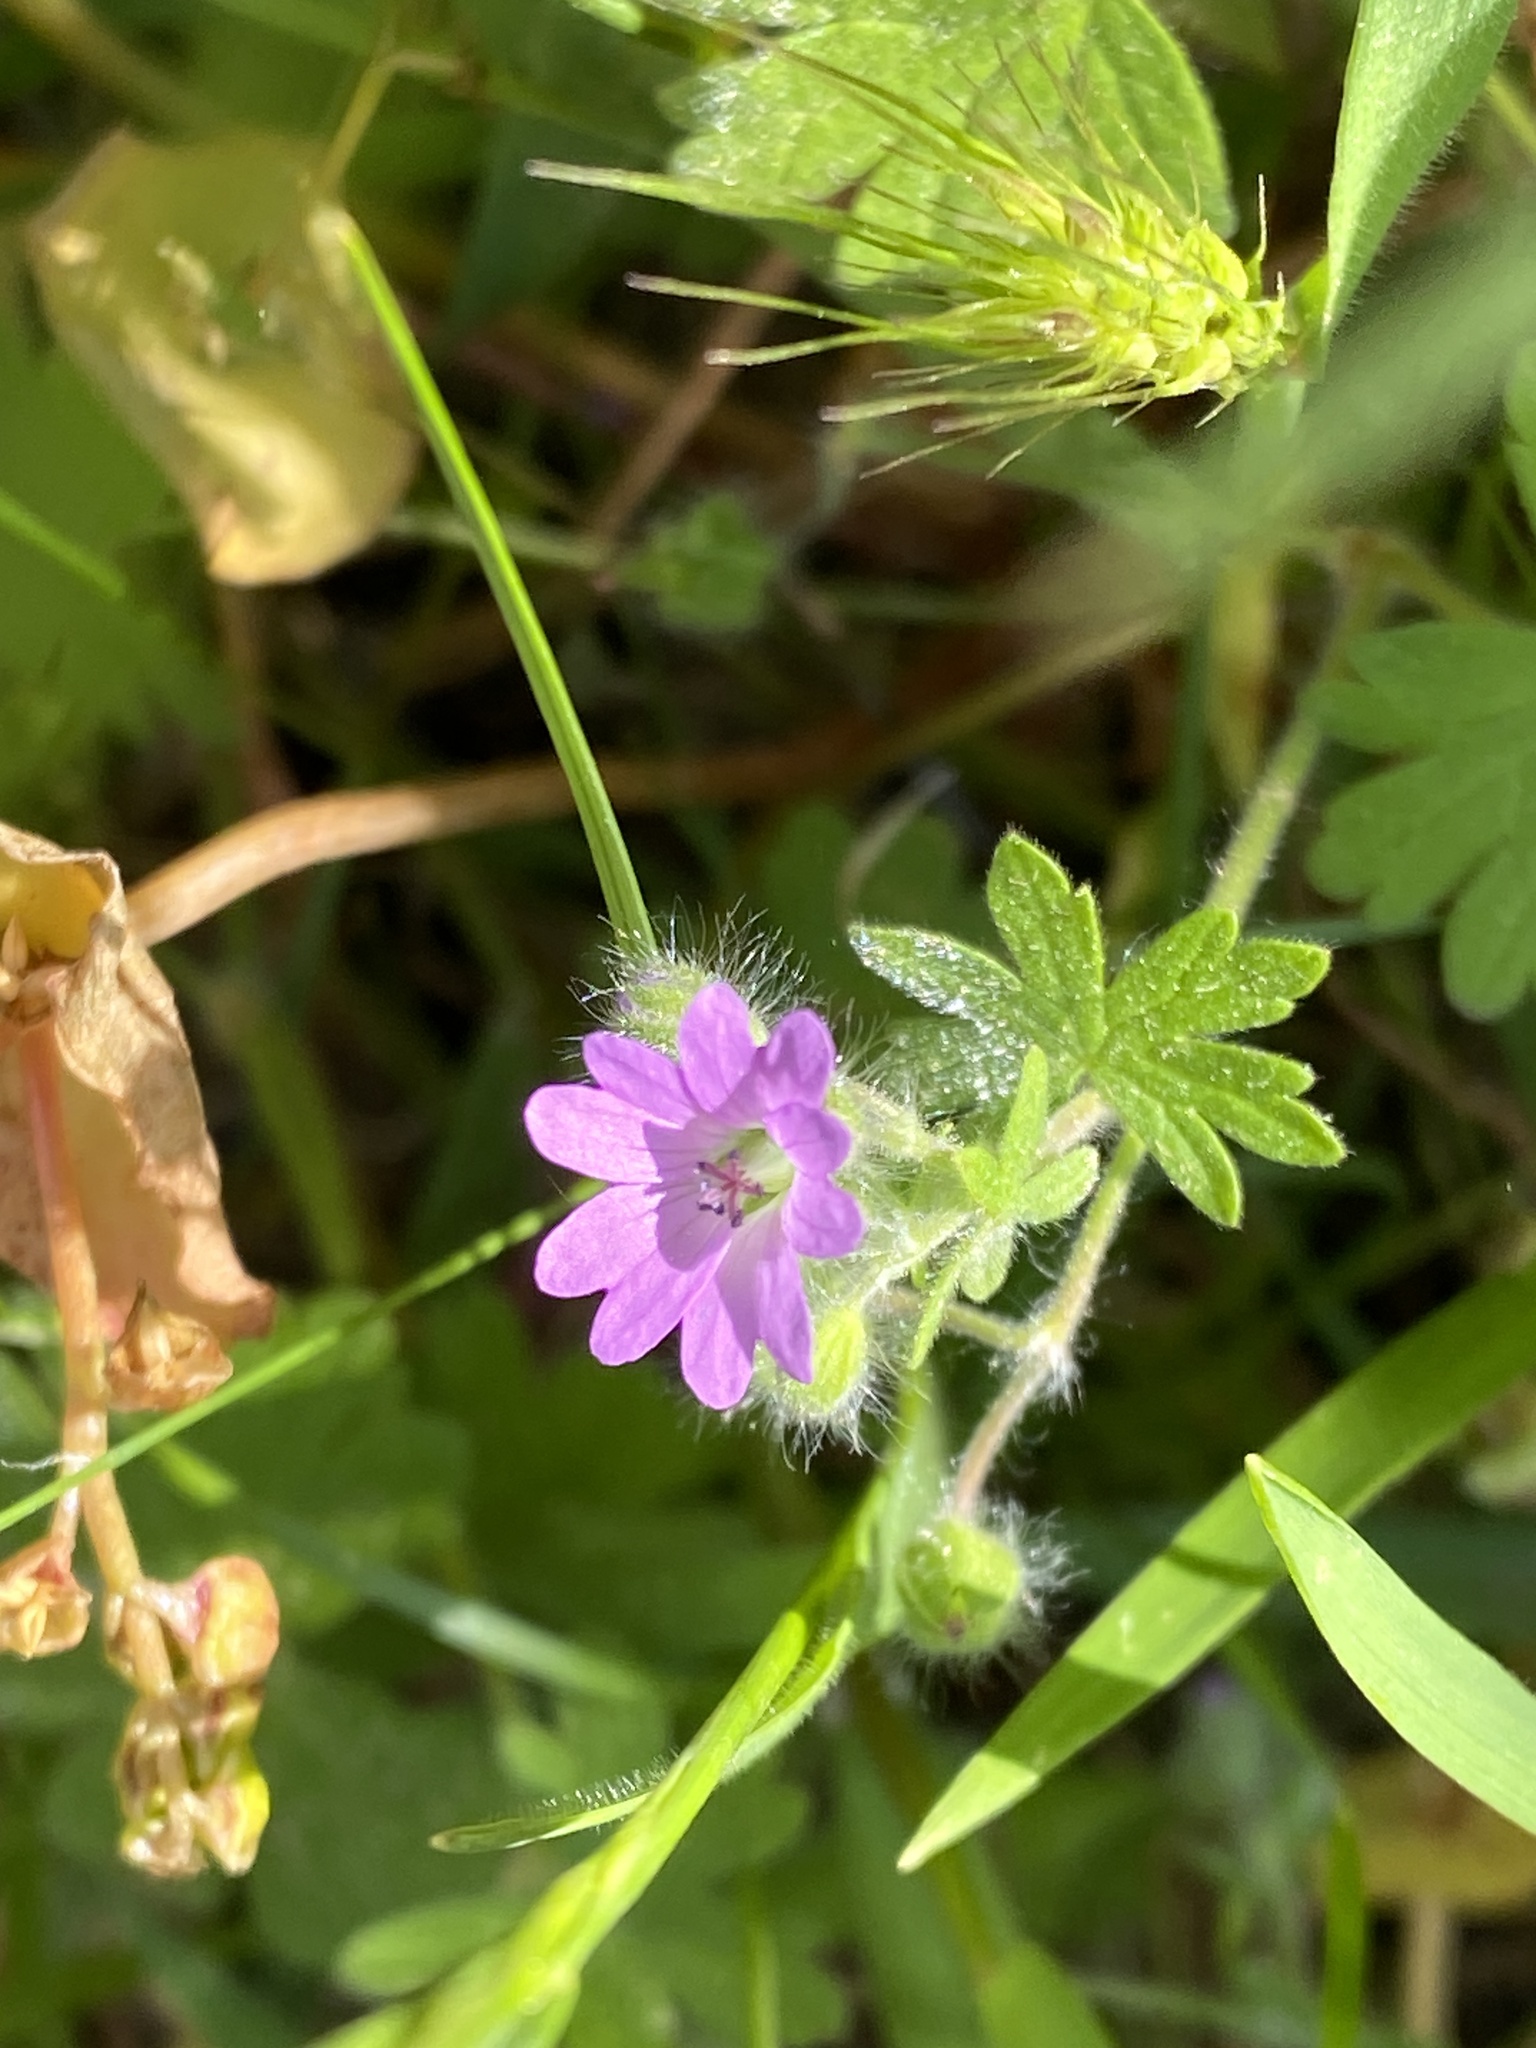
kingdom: Plantae
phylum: Tracheophyta
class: Magnoliopsida
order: Geraniales
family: Geraniaceae
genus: Geranium
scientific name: Geranium molle
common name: Dove's-foot crane's-bill
